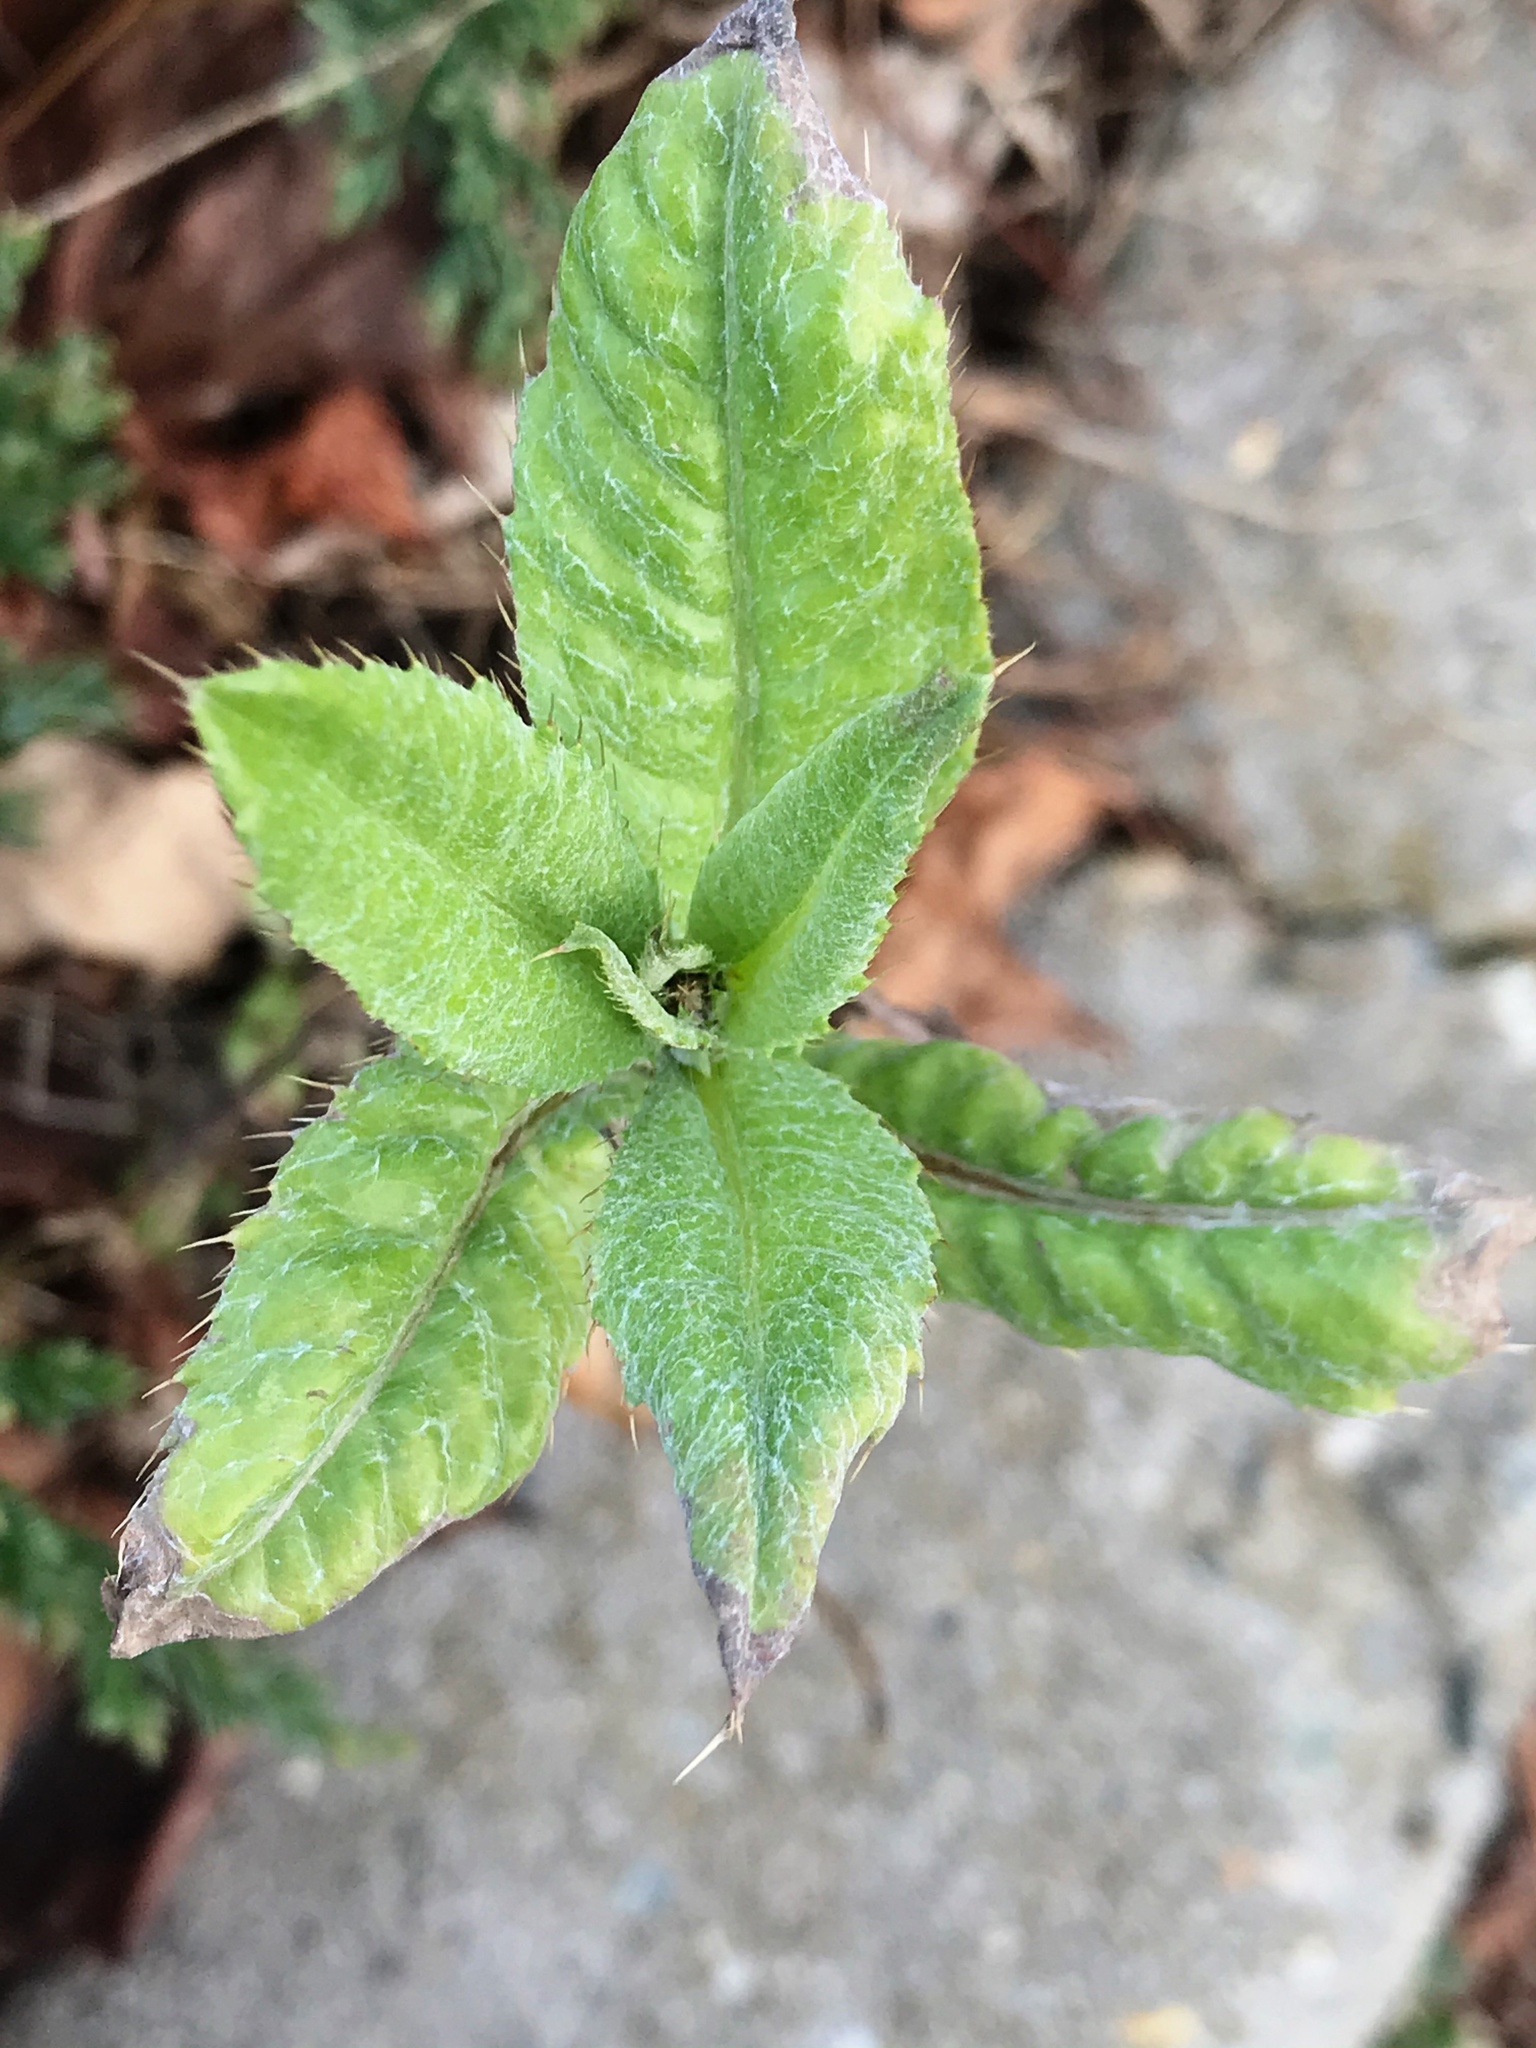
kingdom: Plantae
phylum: Tracheophyta
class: Magnoliopsida
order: Asterales
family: Asteraceae
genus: Cirsium
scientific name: Cirsium arvense
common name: Creeping thistle
